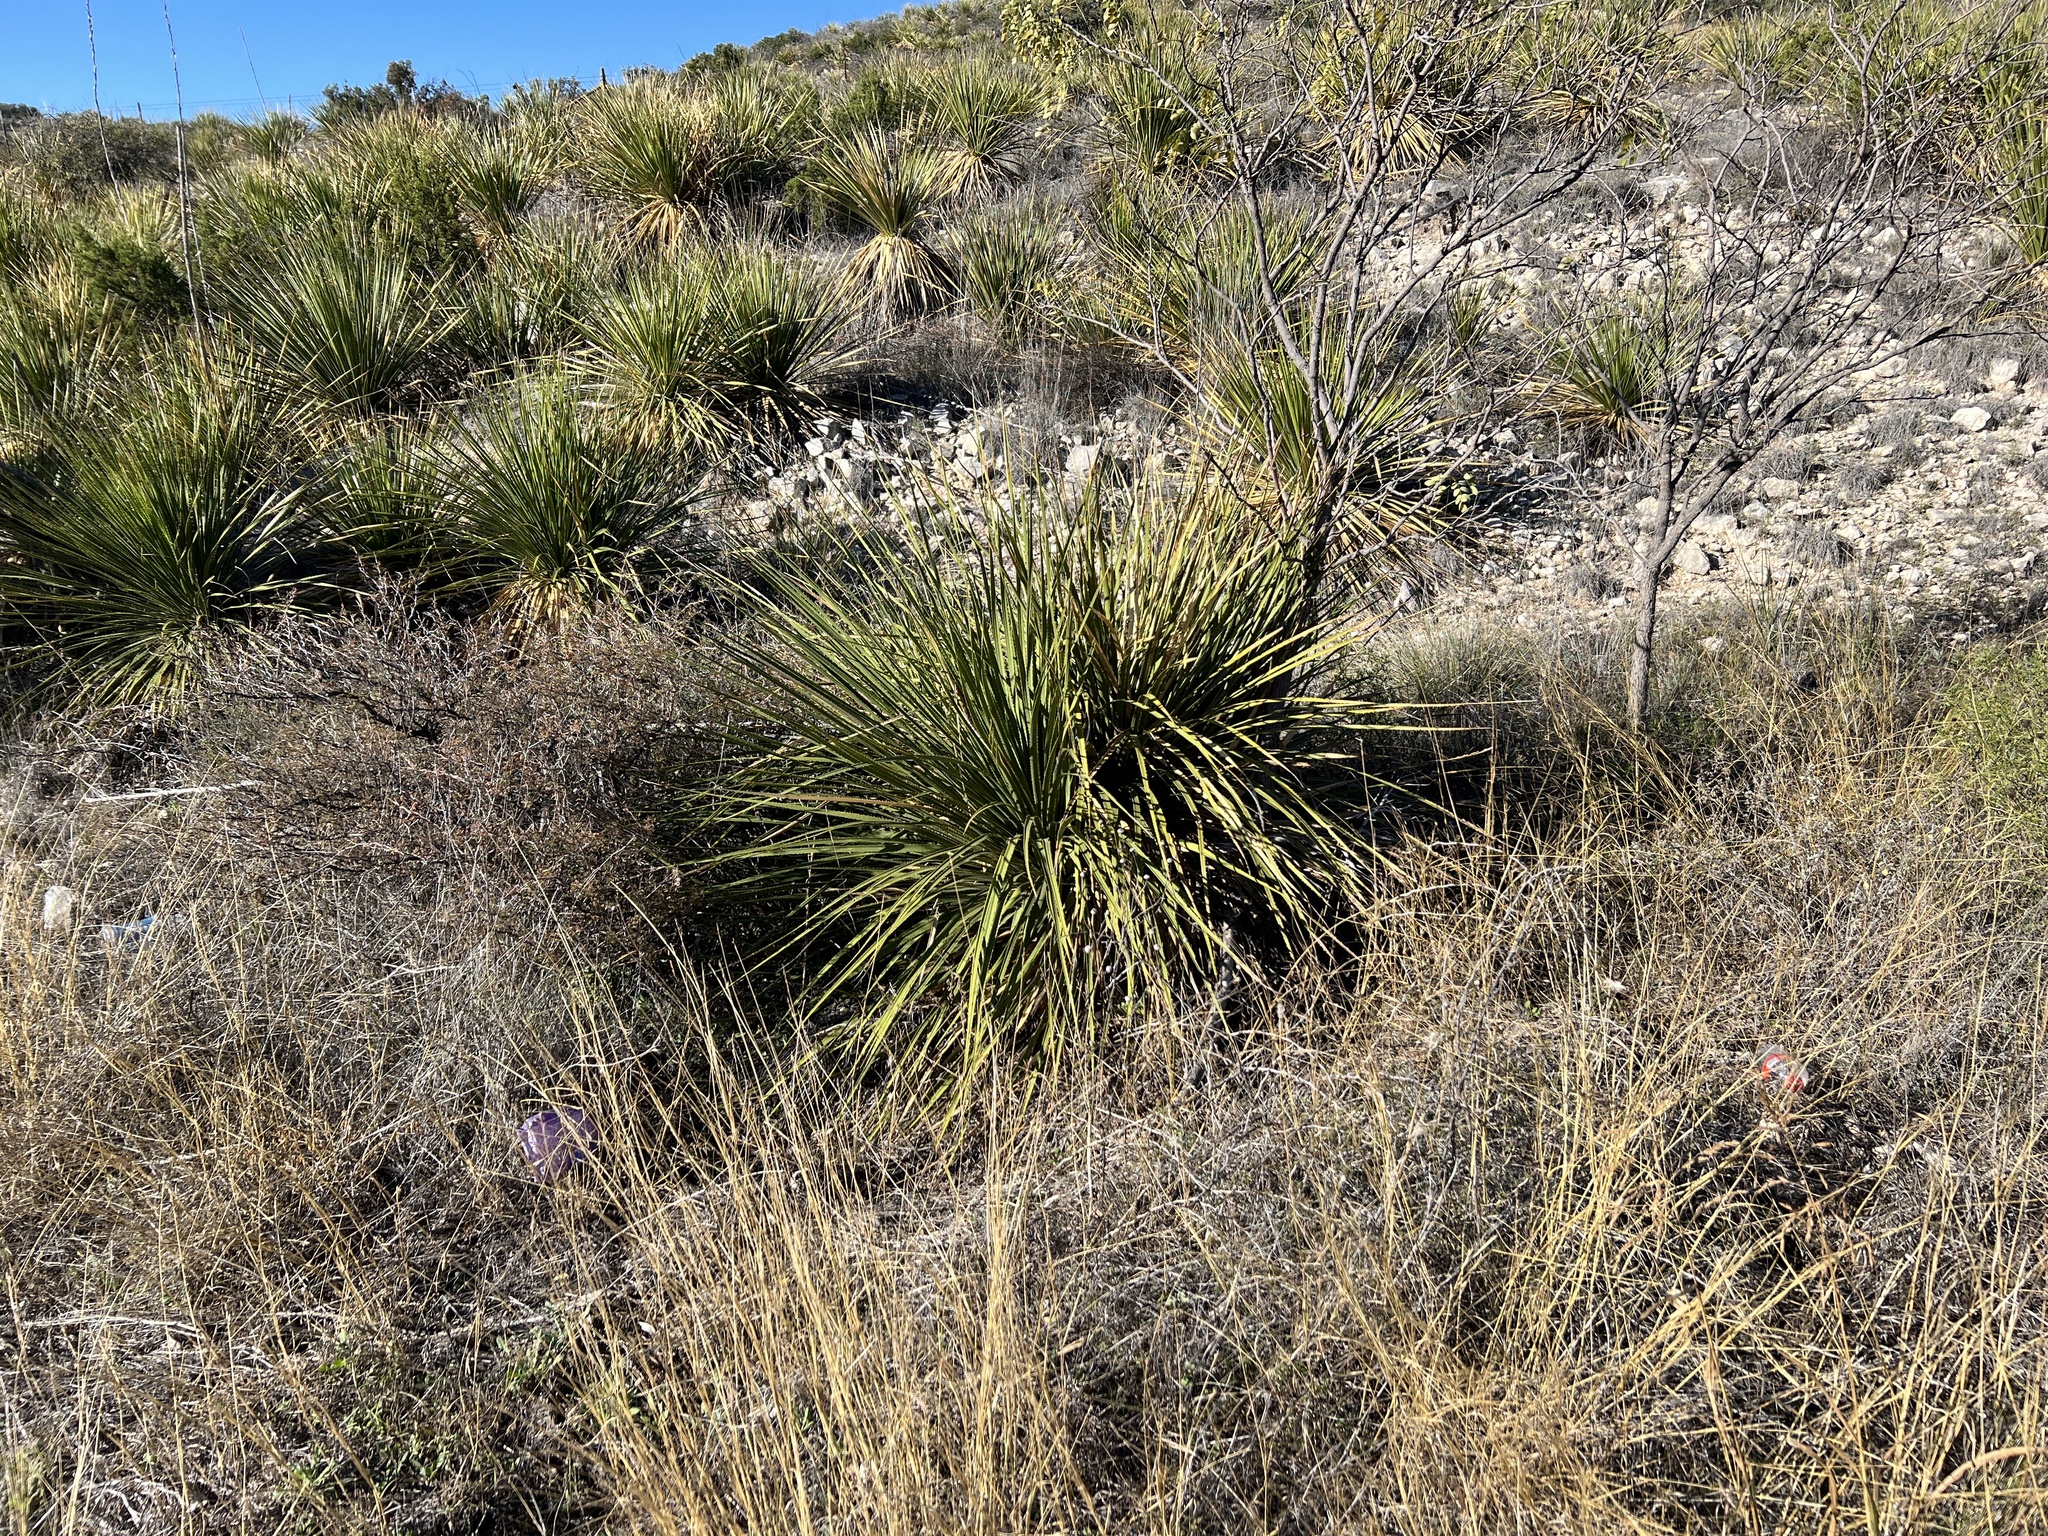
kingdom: Plantae
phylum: Tracheophyta
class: Liliopsida
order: Asparagales
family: Asparagaceae
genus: Dasylirion
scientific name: Dasylirion texanum
